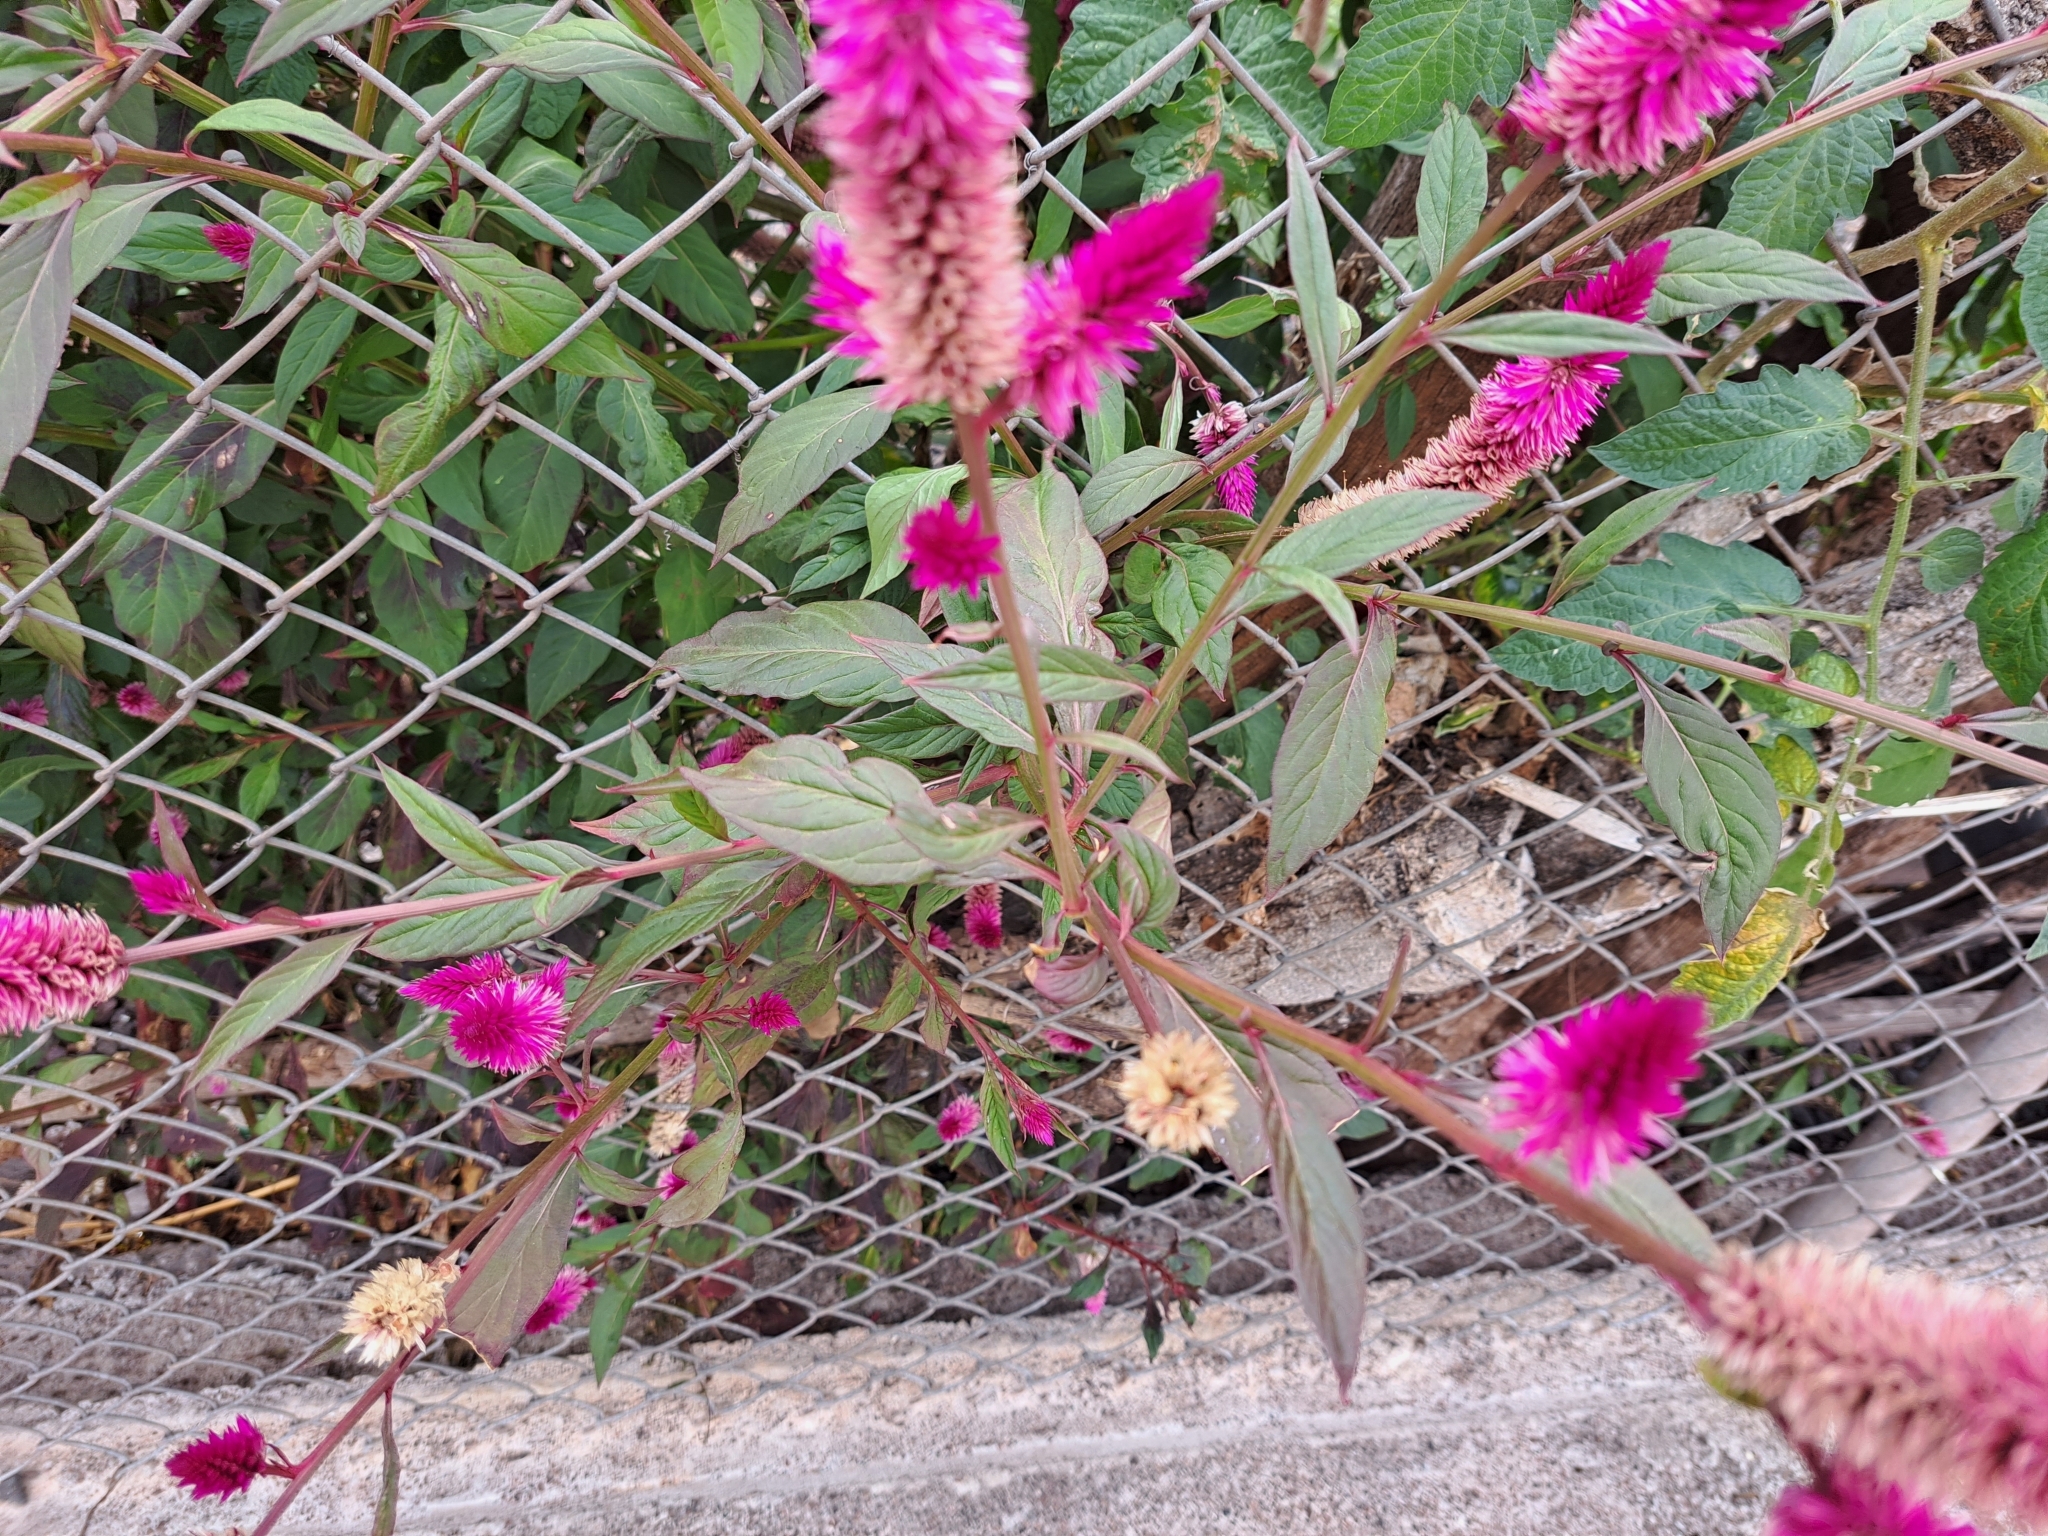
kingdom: Plantae
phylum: Tracheophyta
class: Magnoliopsida
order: Caryophyllales
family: Amaranthaceae
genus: Celosia
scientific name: Celosia argentea
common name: Feather cockscomb
